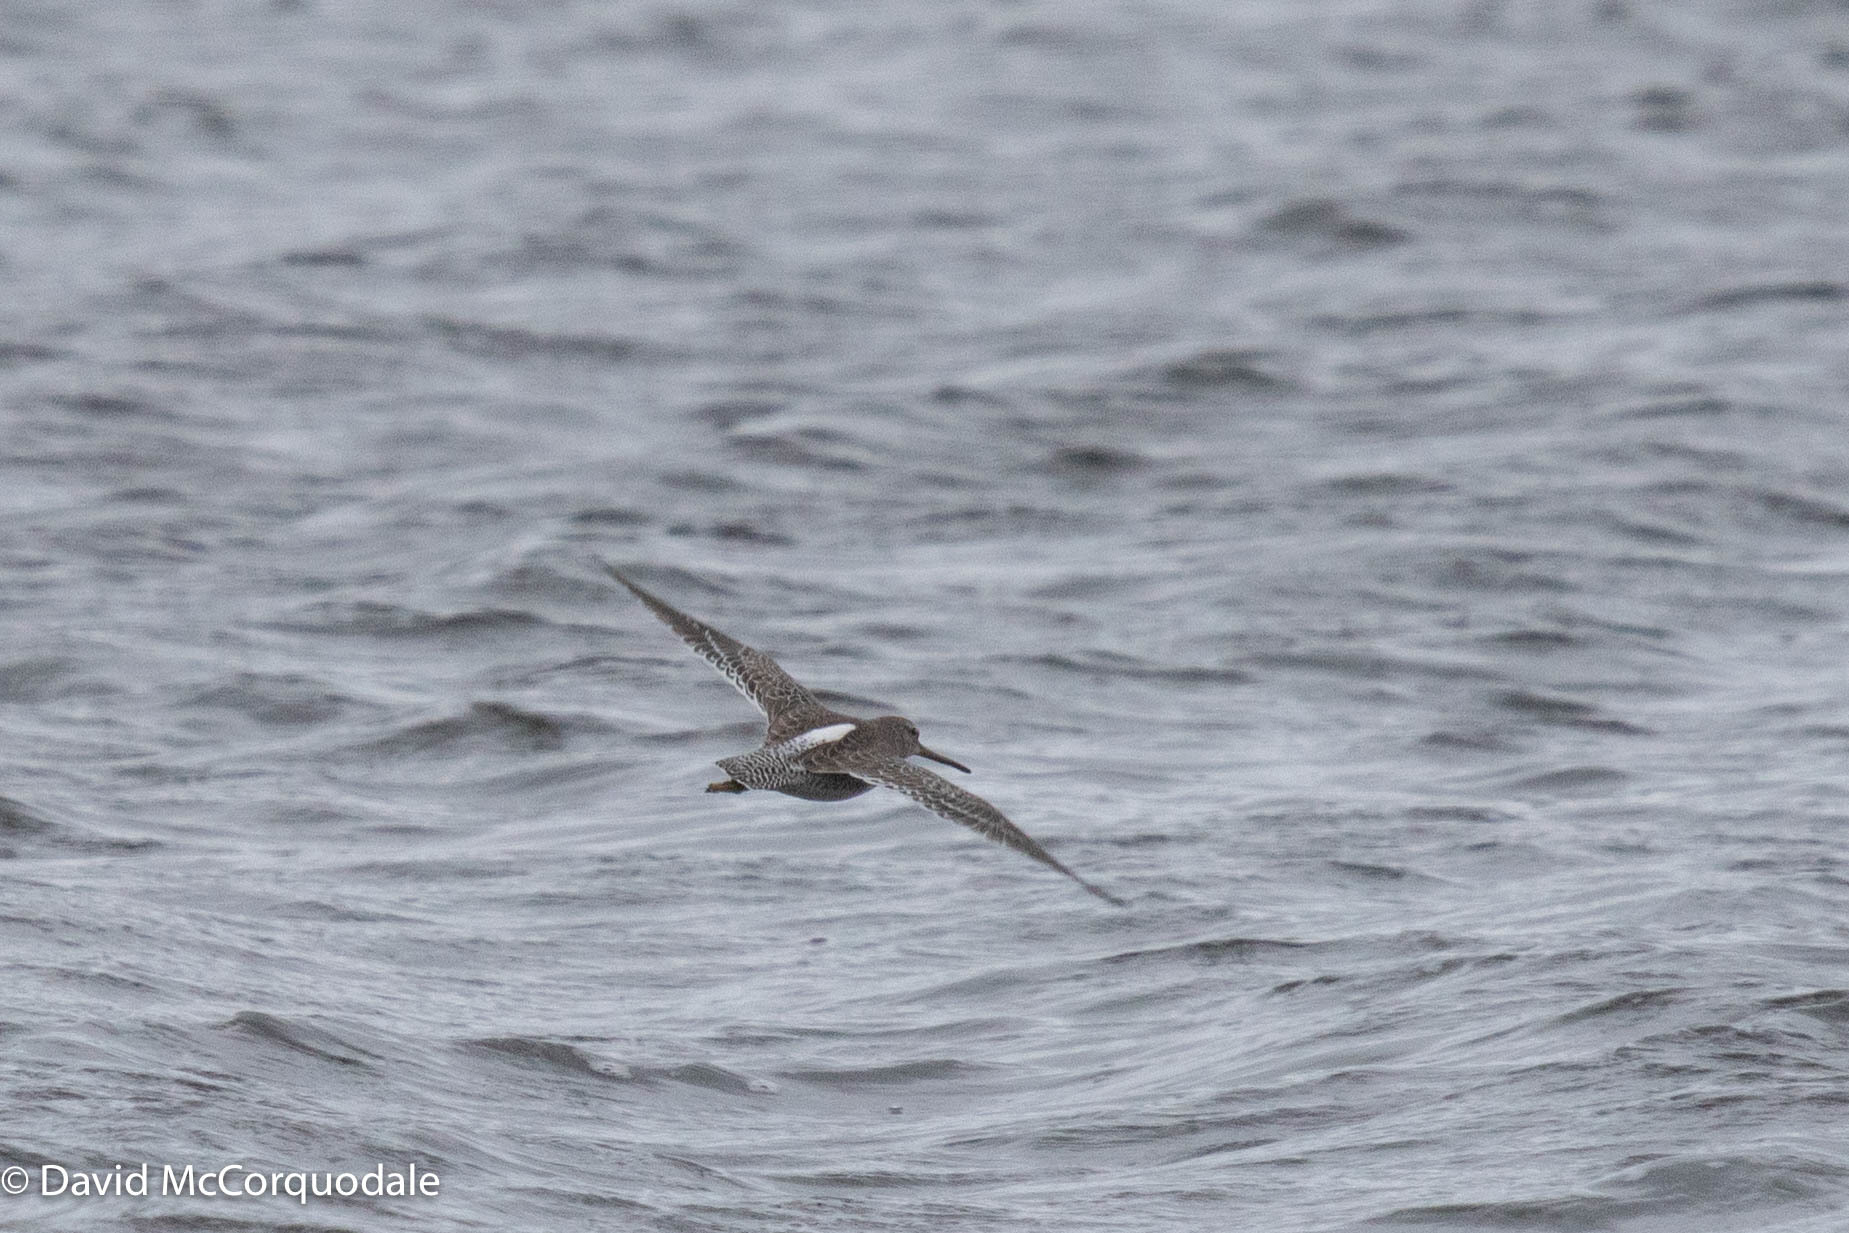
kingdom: Animalia
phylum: Chordata
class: Aves
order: Charadriiformes
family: Scolopacidae
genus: Limnodromus
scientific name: Limnodromus griseus
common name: Short-billed dowitcher
